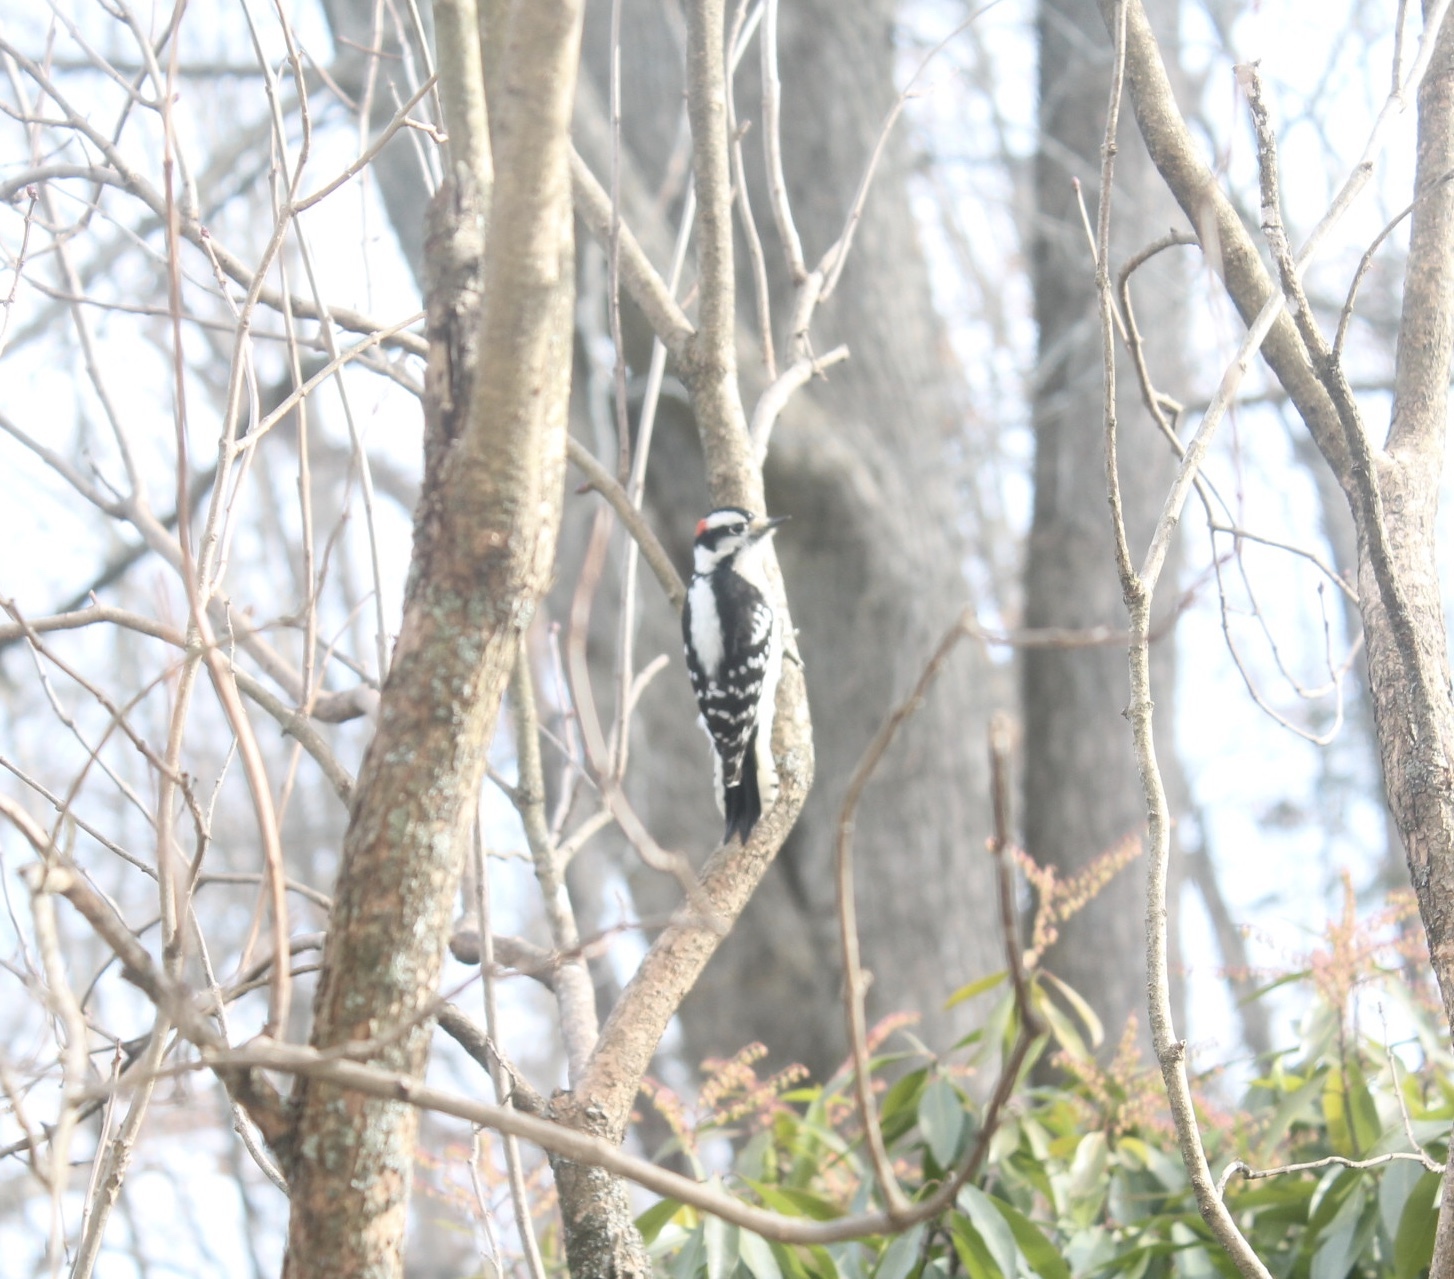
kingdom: Animalia
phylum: Chordata
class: Aves
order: Passeriformes
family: Corvidae
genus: Cyanocitta
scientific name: Cyanocitta cristata
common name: Blue jay
